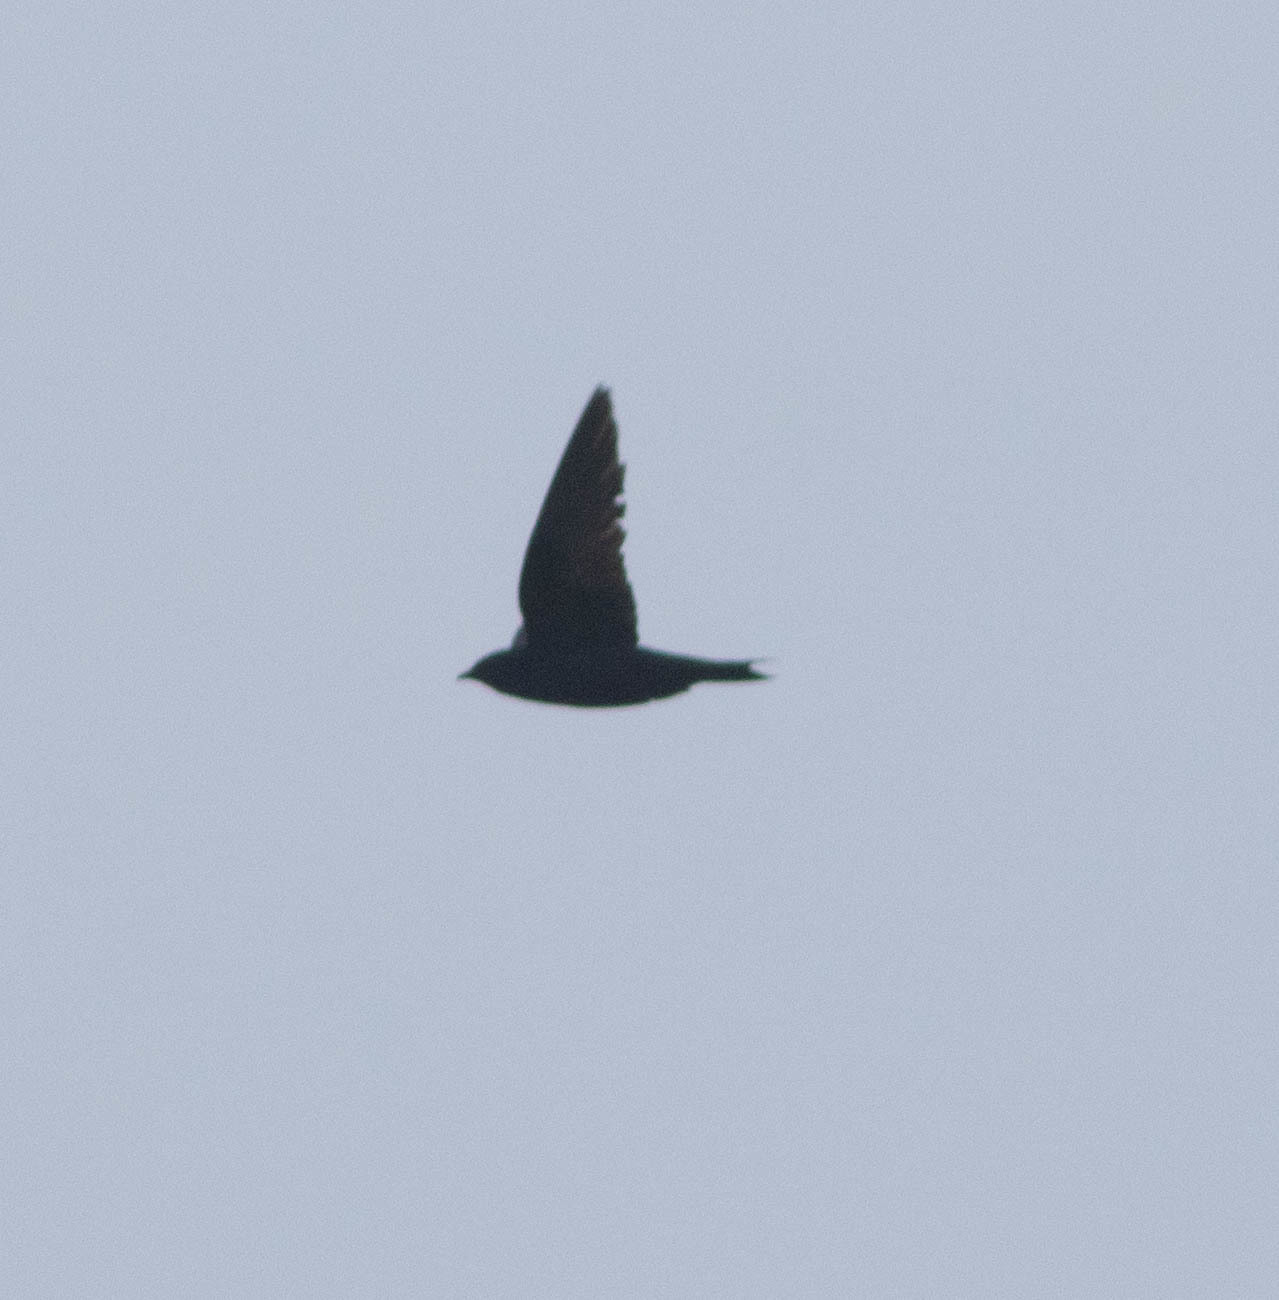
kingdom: Animalia
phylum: Chordata
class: Aves
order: Passeriformes
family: Hirundinidae
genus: Progne
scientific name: Progne subis
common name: Purple martin
